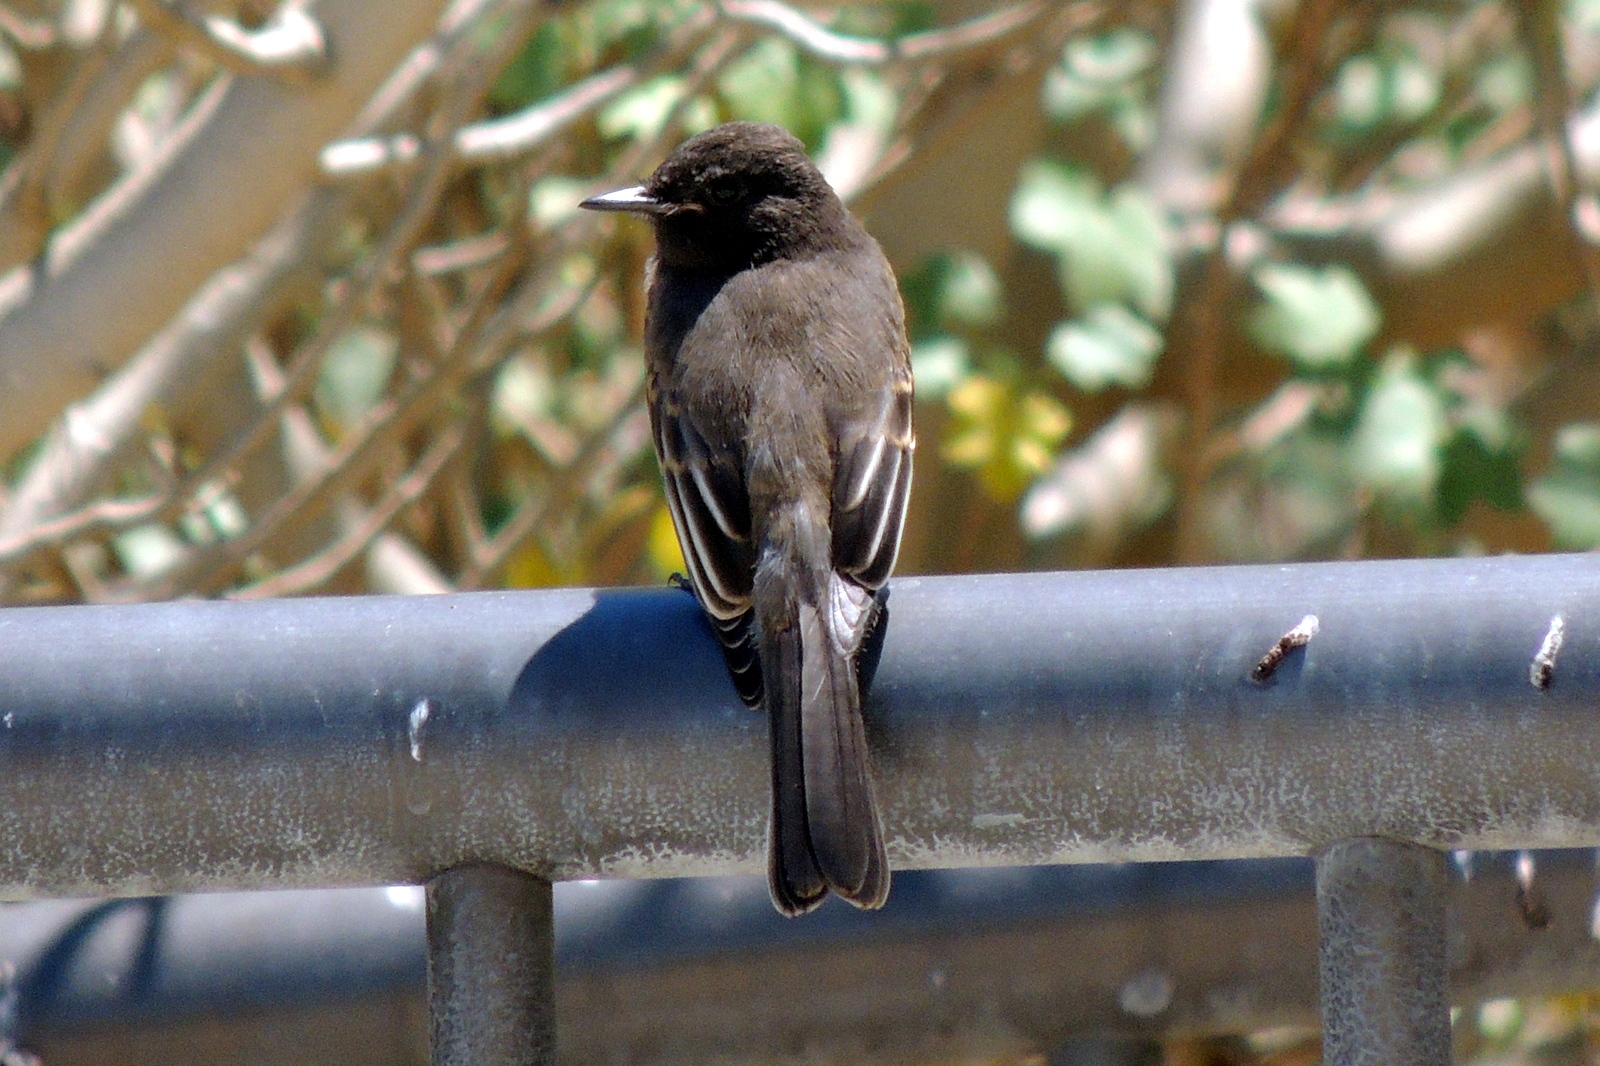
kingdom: Animalia
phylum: Chordata
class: Aves
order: Passeriformes
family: Tyrannidae
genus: Sayornis
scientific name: Sayornis nigricans
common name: Black phoebe
